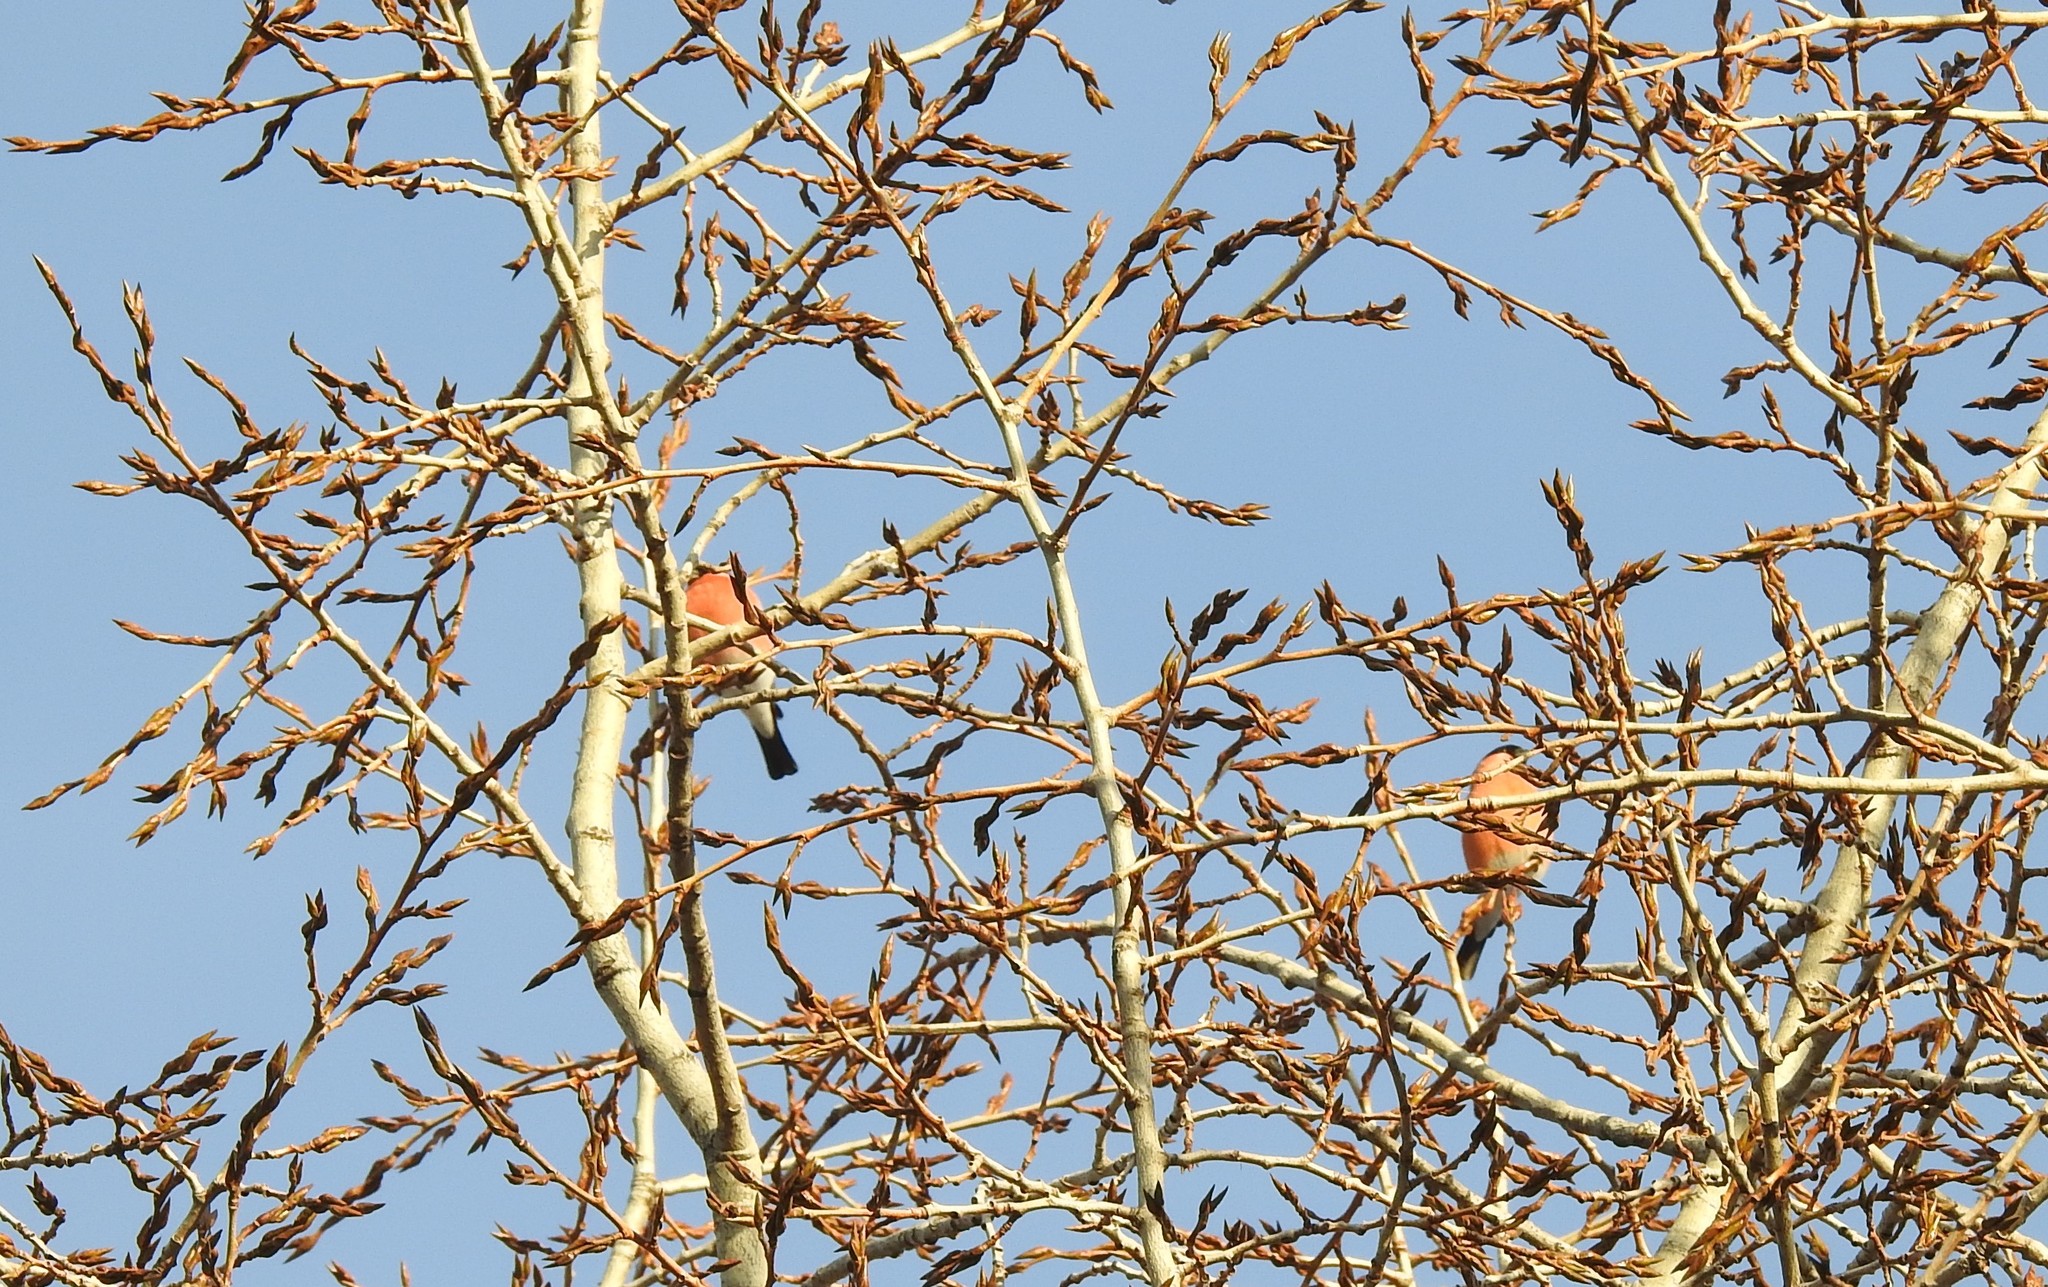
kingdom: Animalia
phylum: Chordata
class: Aves
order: Passeriformes
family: Fringillidae
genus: Pyrrhula
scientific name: Pyrrhula pyrrhula
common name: Eurasian bullfinch
